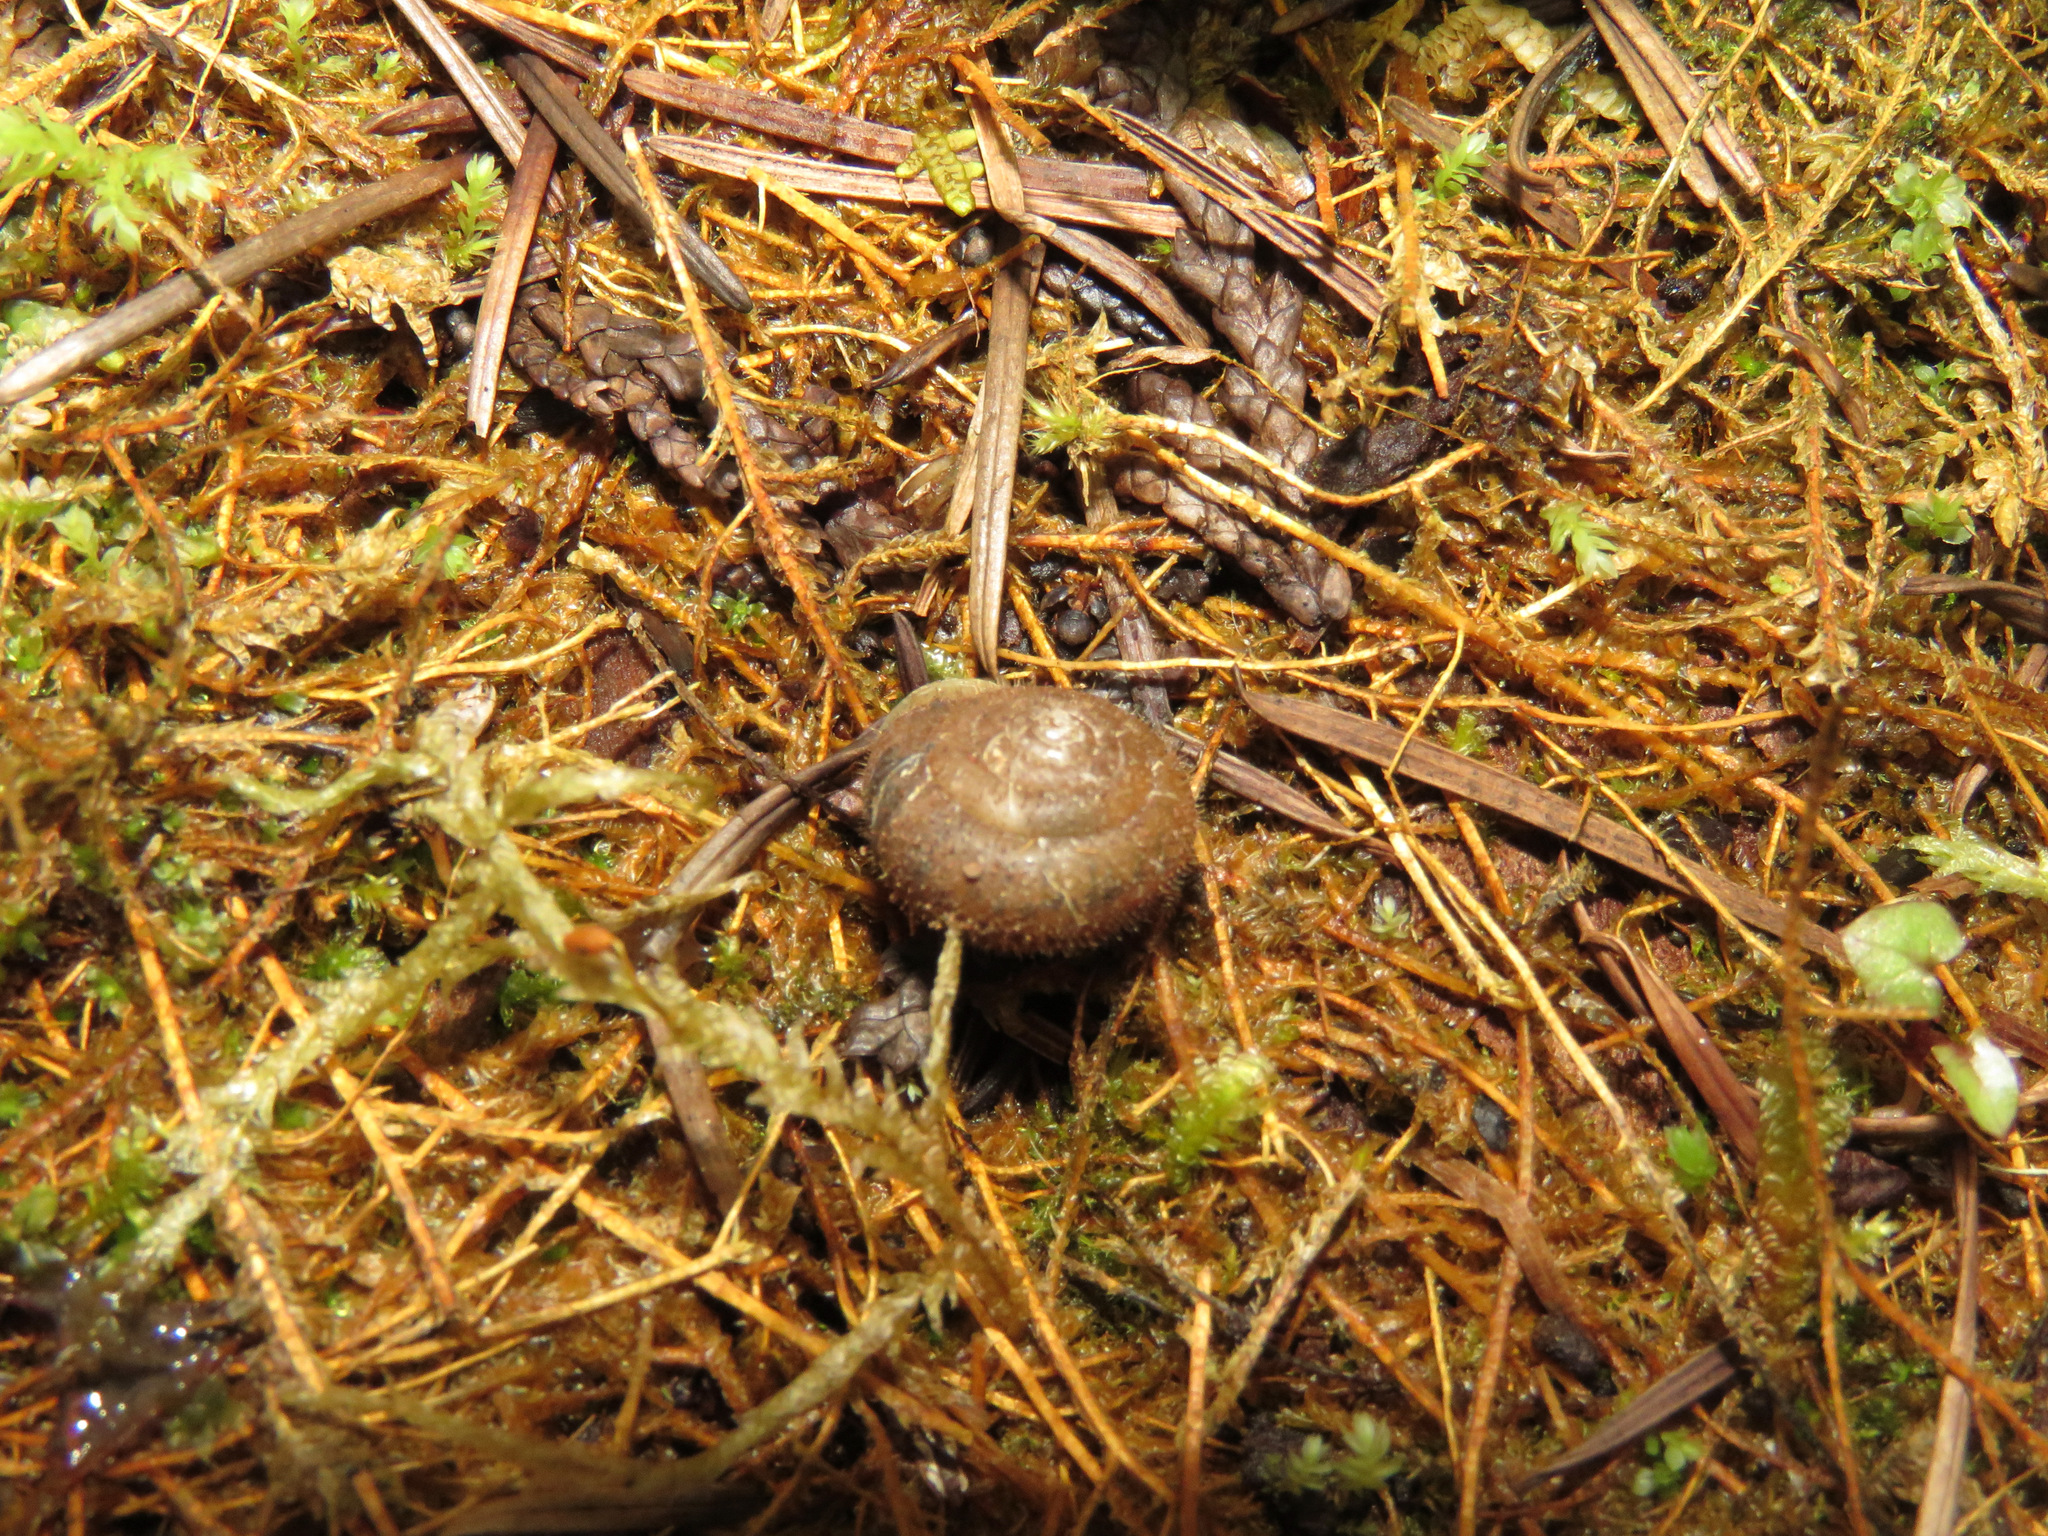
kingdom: Animalia
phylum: Mollusca
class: Gastropoda
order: Stylommatophora
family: Polygyridae
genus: Vespericola
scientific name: Vespericola columbianus
